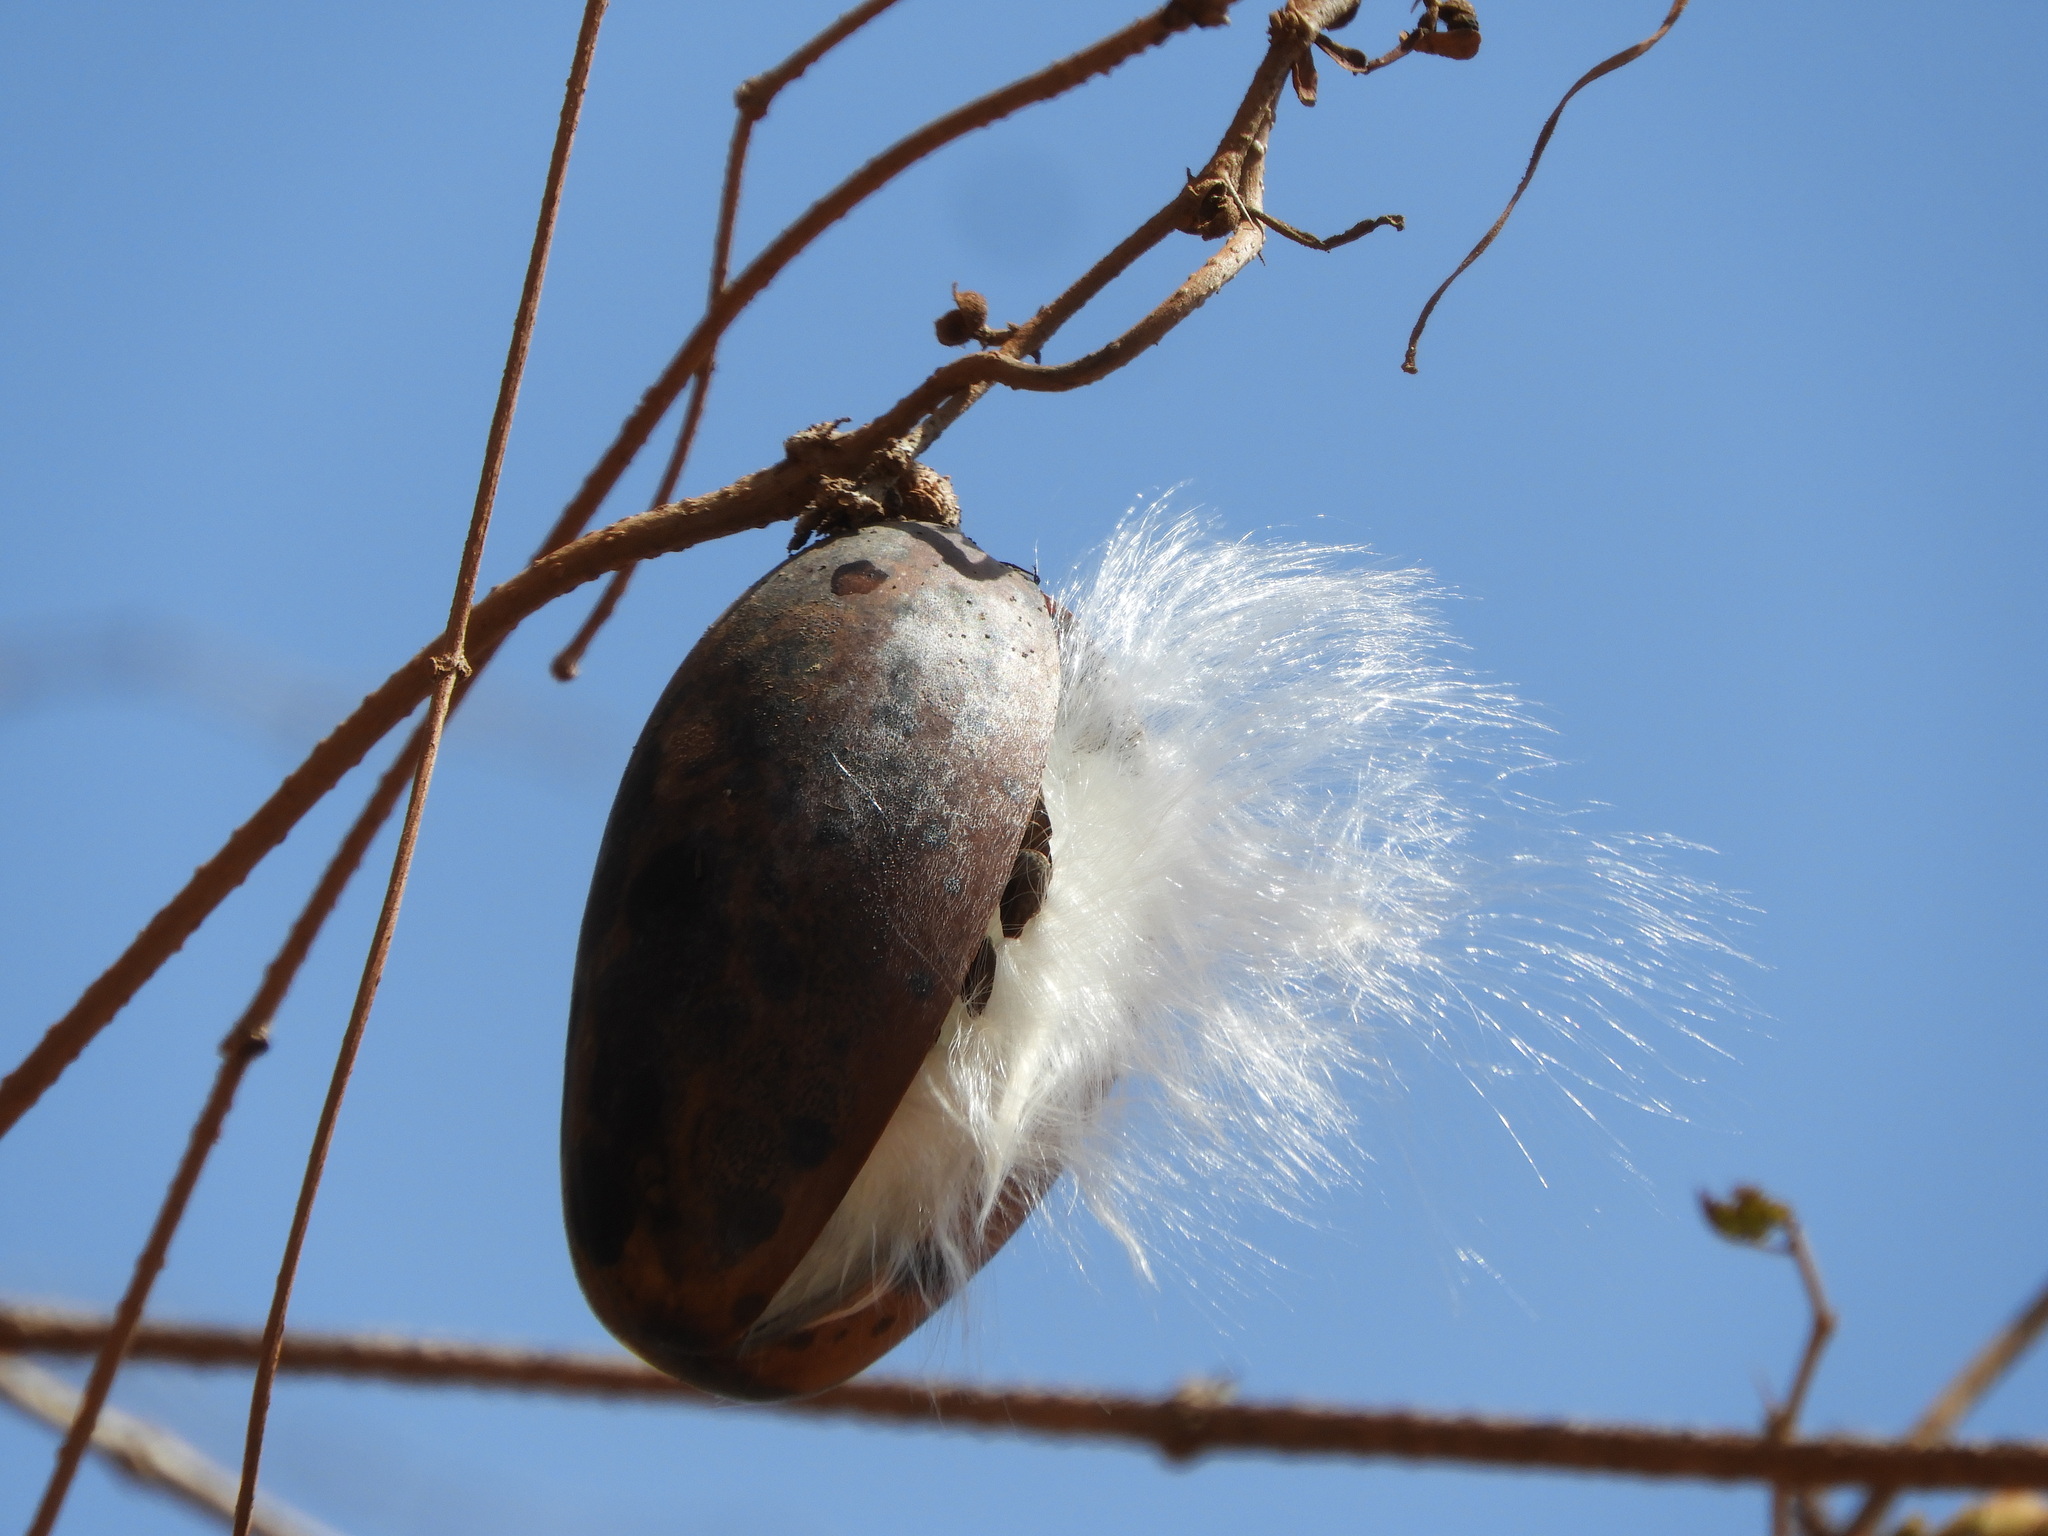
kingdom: Plantae
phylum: Tracheophyta
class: Magnoliopsida
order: Gentianales
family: Apocynaceae
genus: Ruehssia
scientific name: Ruehssia edulis
